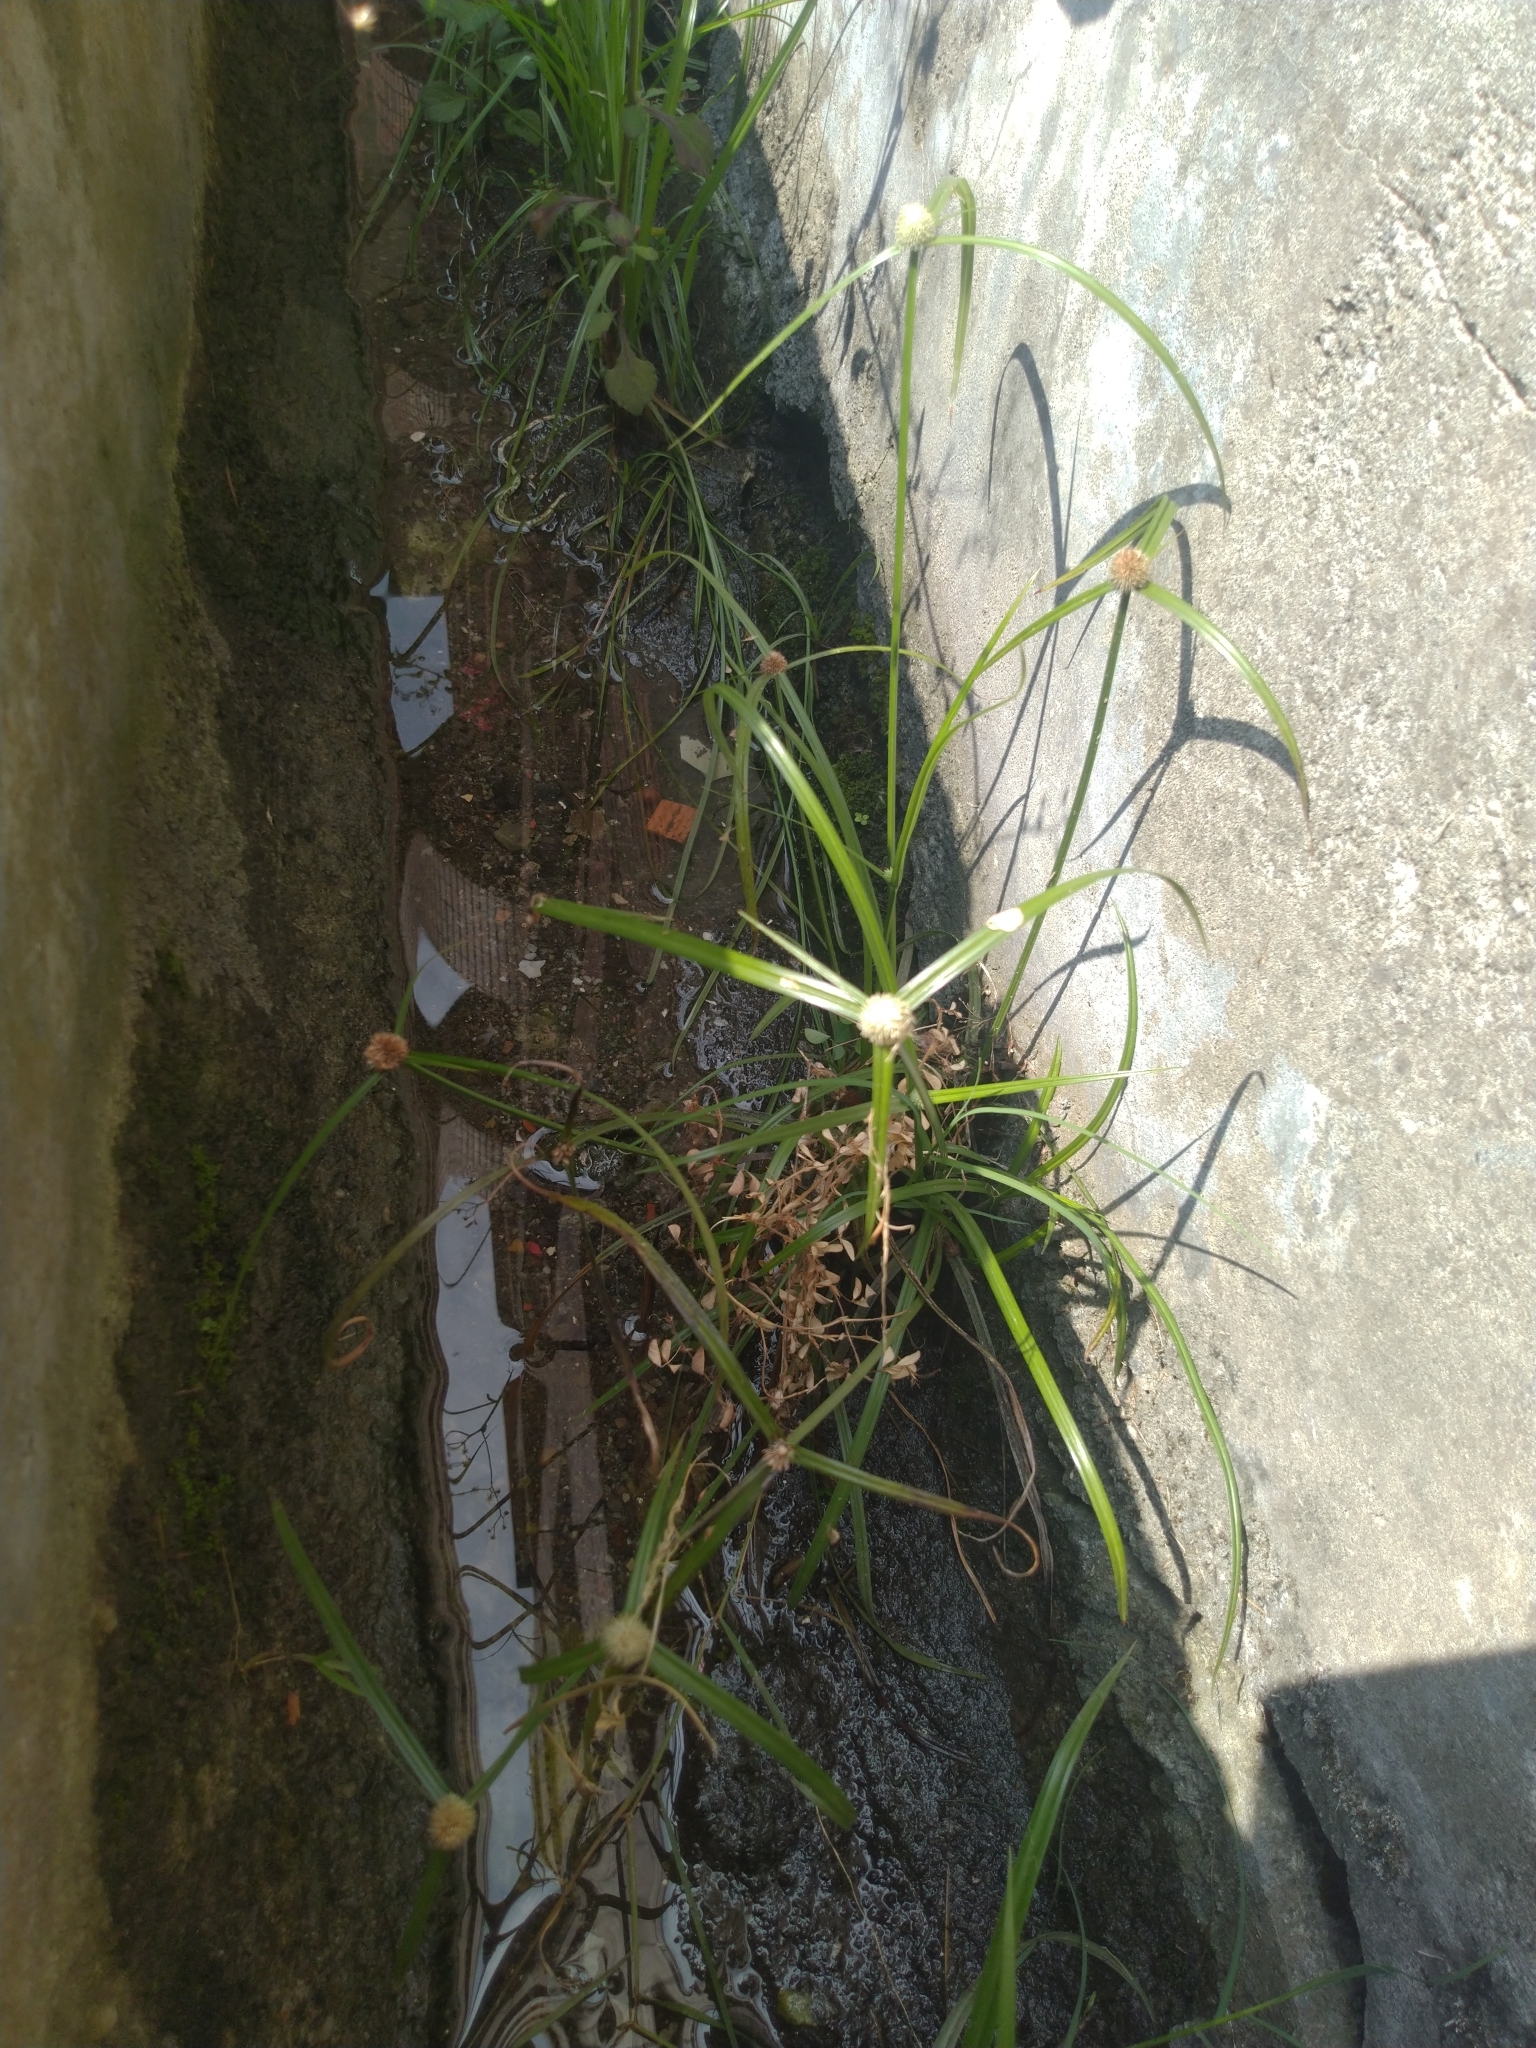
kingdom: Plantae
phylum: Tracheophyta
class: Liliopsida
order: Poales
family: Cyperaceae
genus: Cyperus
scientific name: Cyperus mindorensis
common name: Flatsedge
